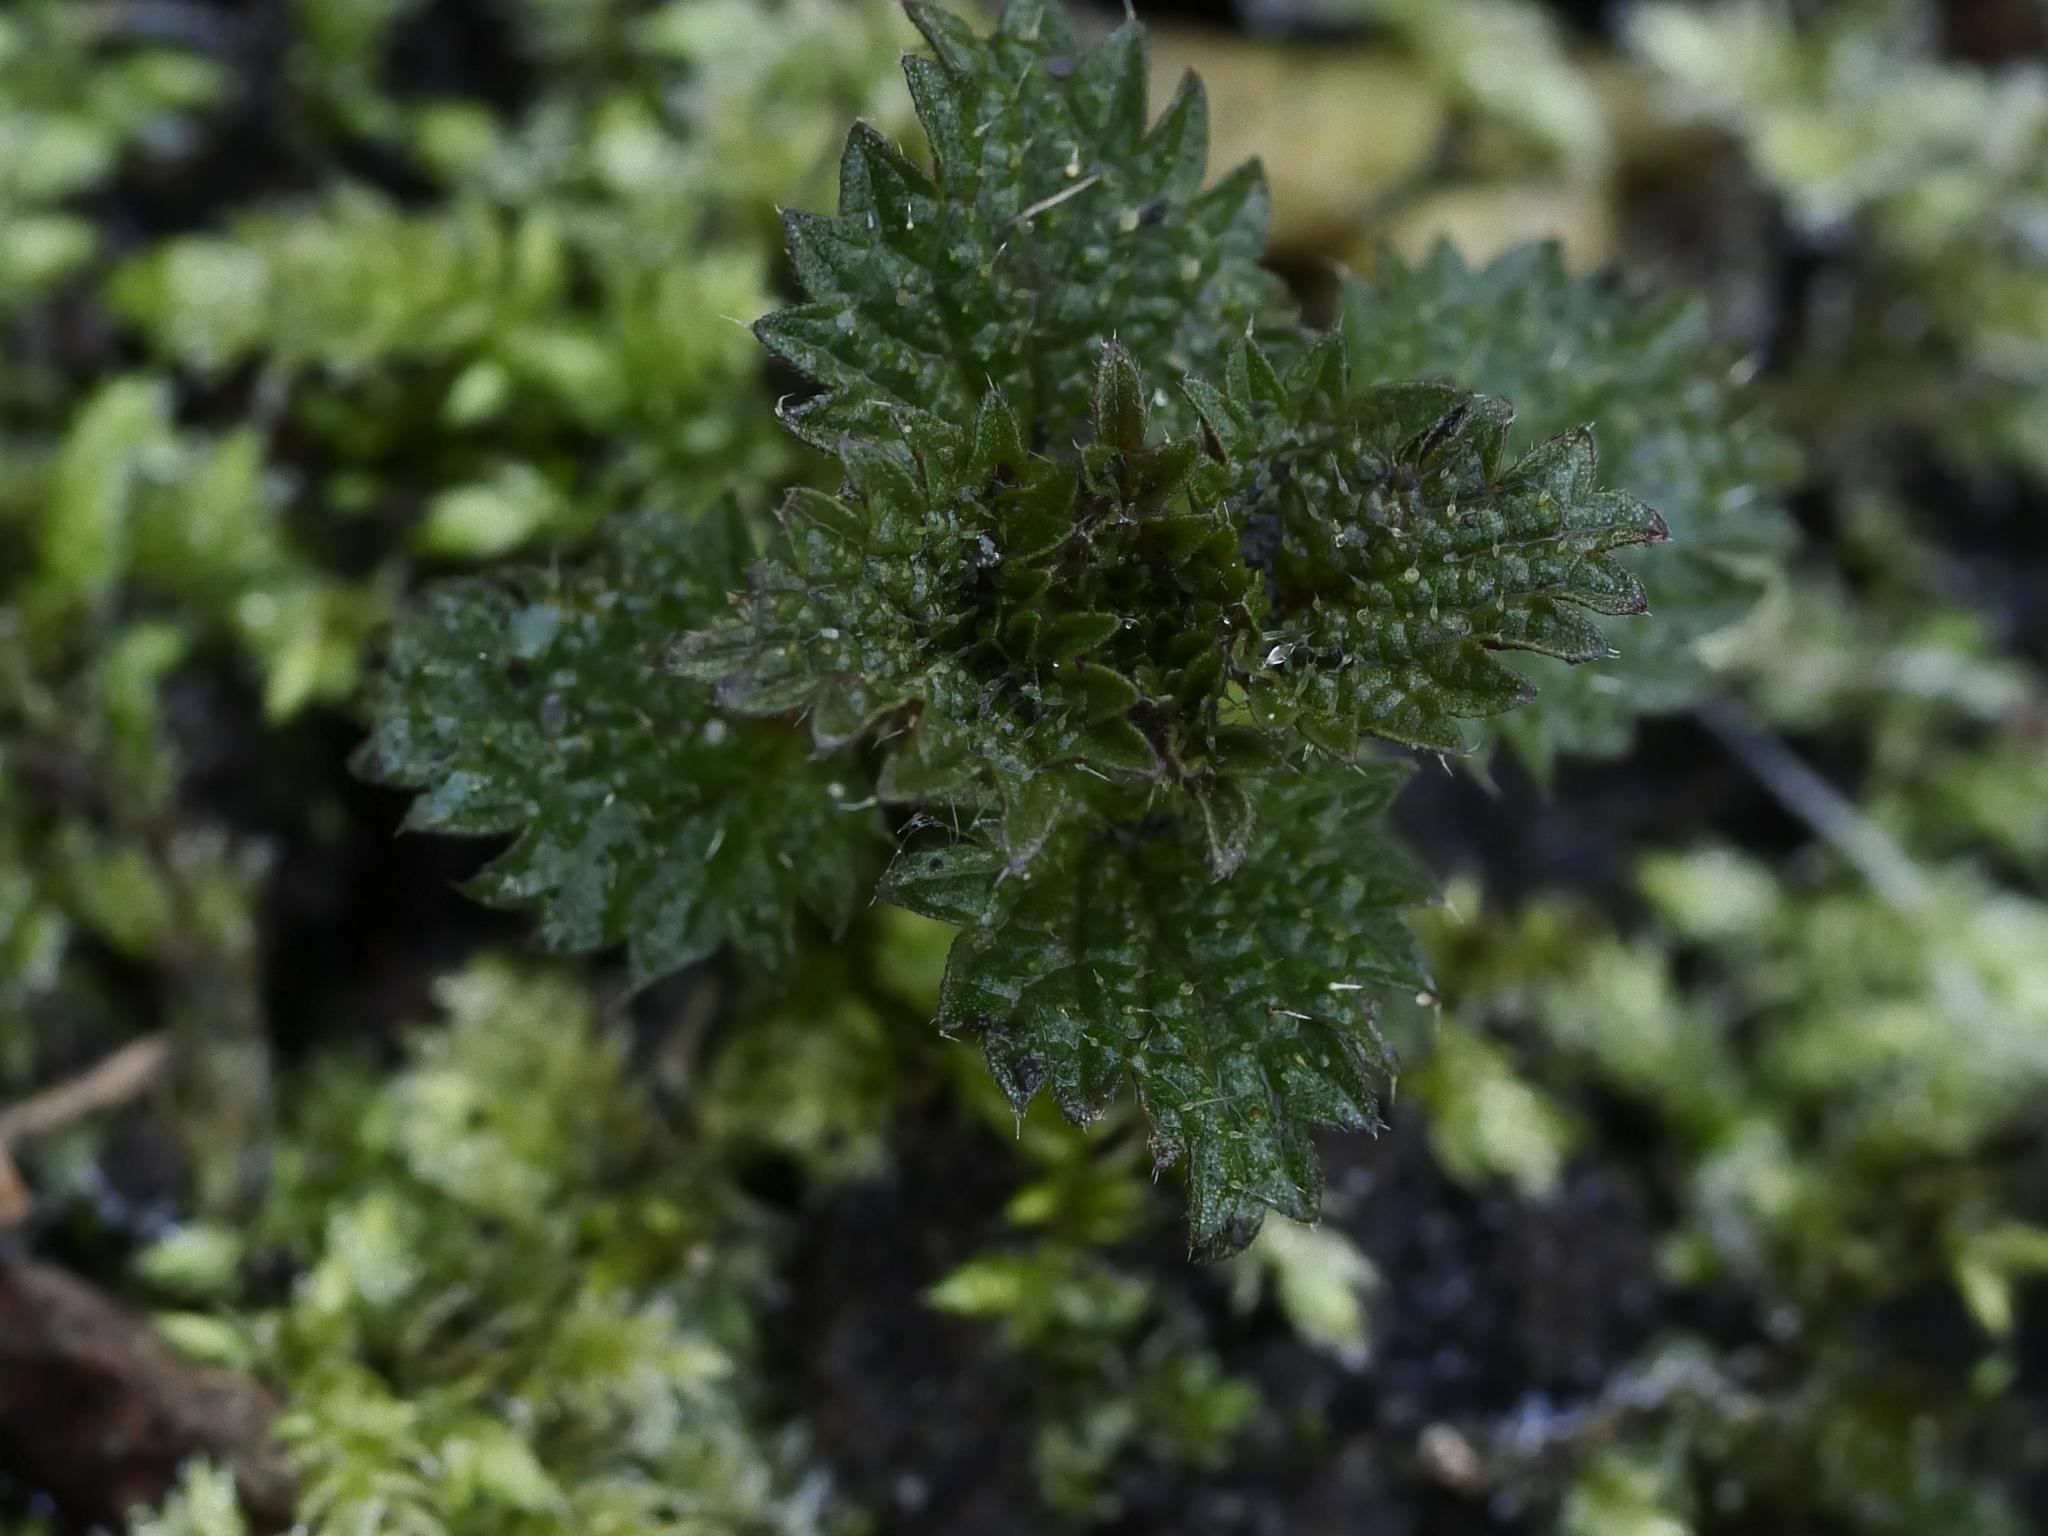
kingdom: Plantae
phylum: Tracheophyta
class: Magnoliopsida
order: Rosales
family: Urticaceae
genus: Urtica
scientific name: Urtica dioica
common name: Common nettle
